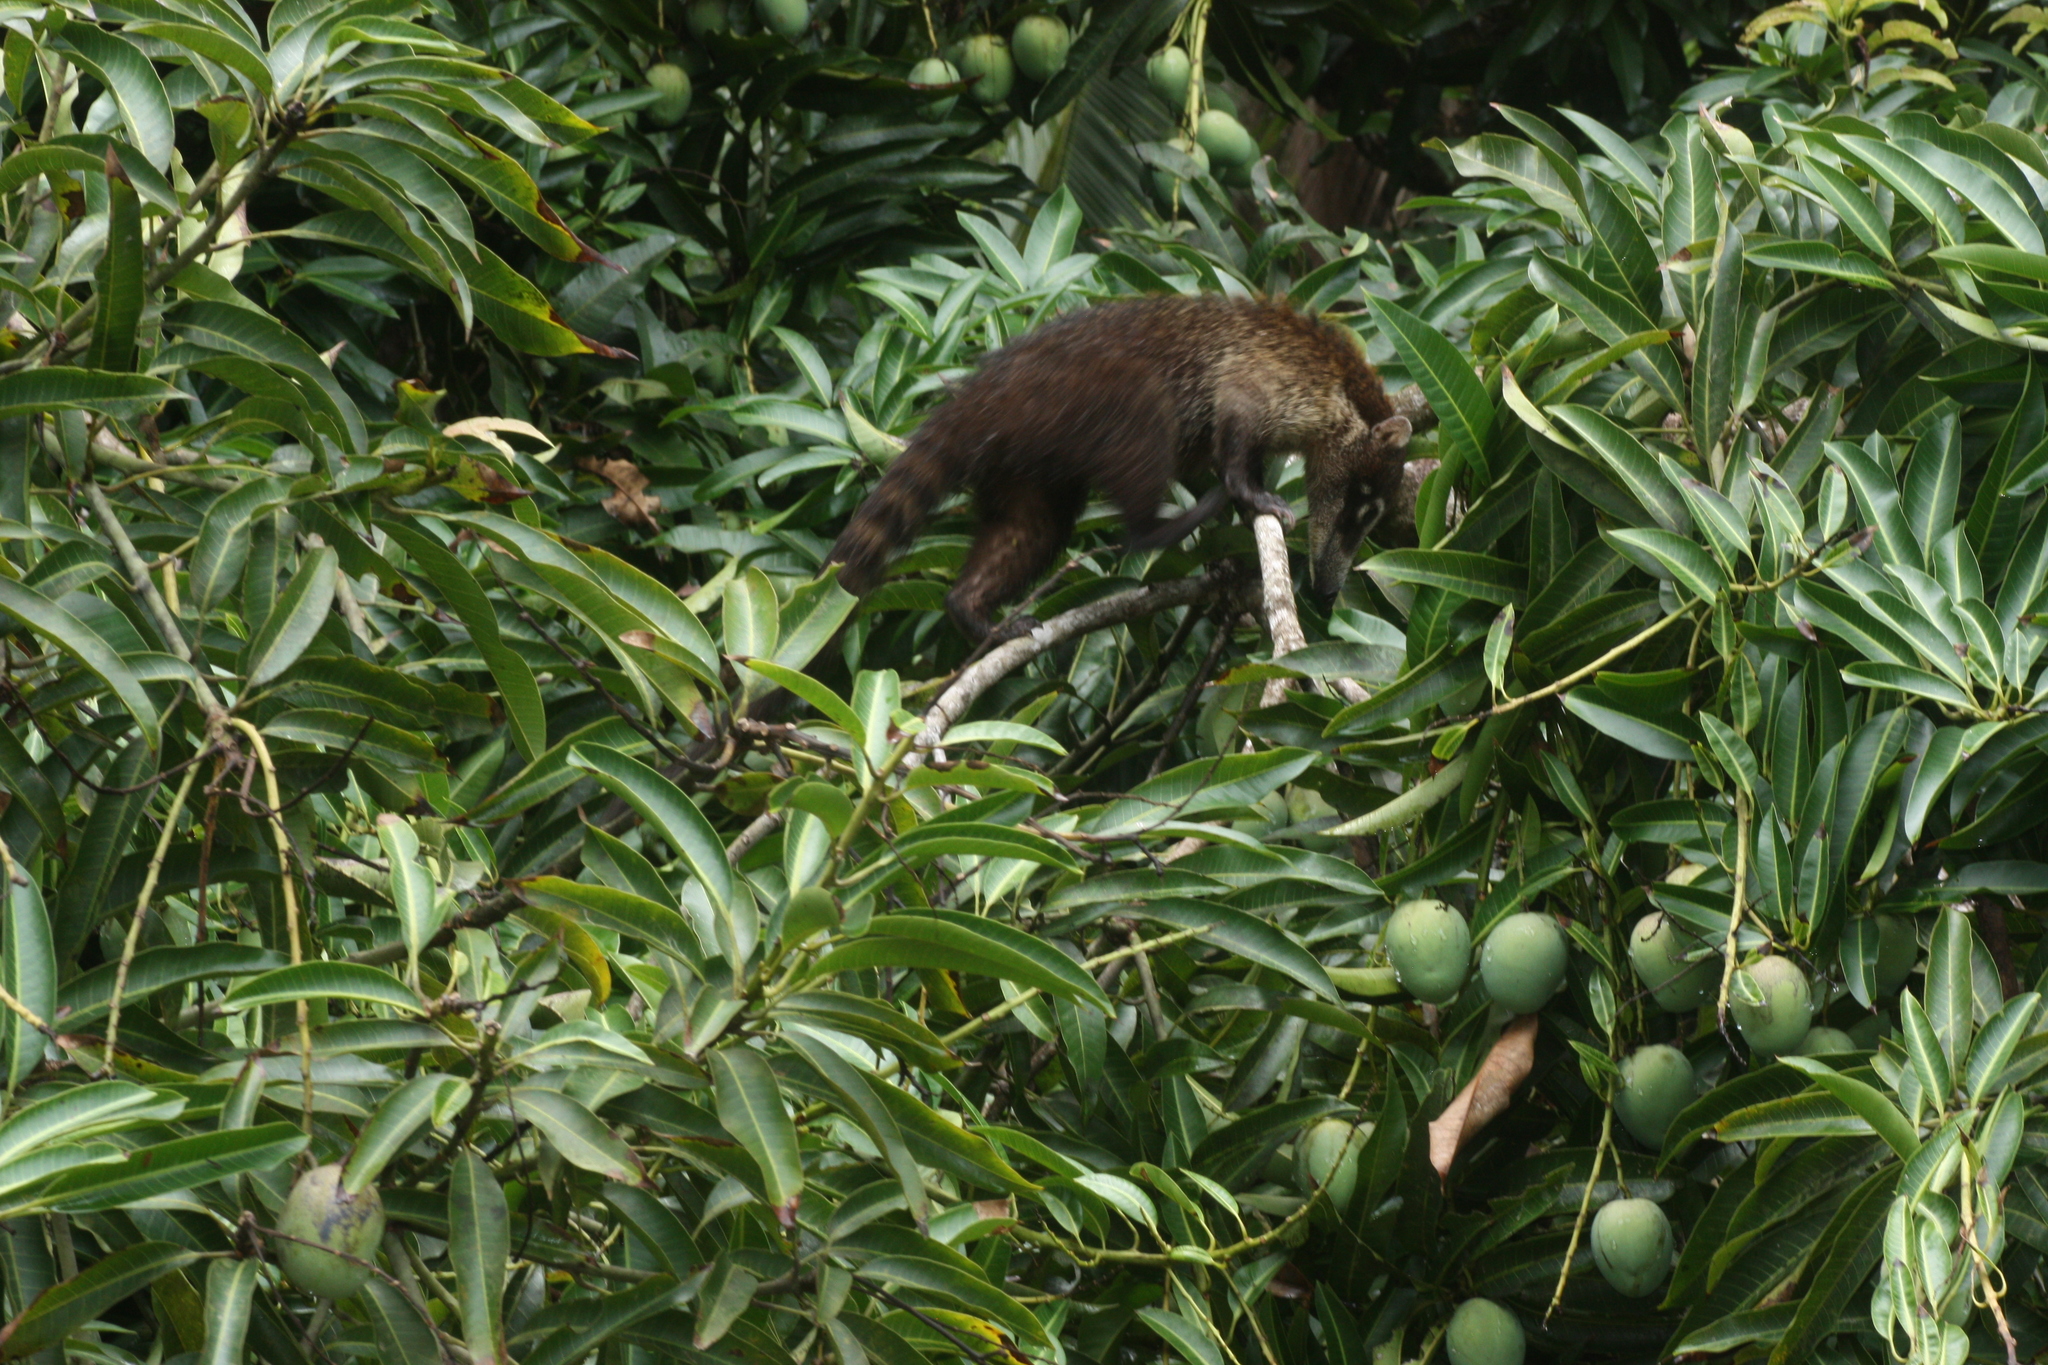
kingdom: Animalia
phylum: Chordata
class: Mammalia
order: Carnivora
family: Procyonidae
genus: Nasua
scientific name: Nasua narica
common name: White-nosed coati
